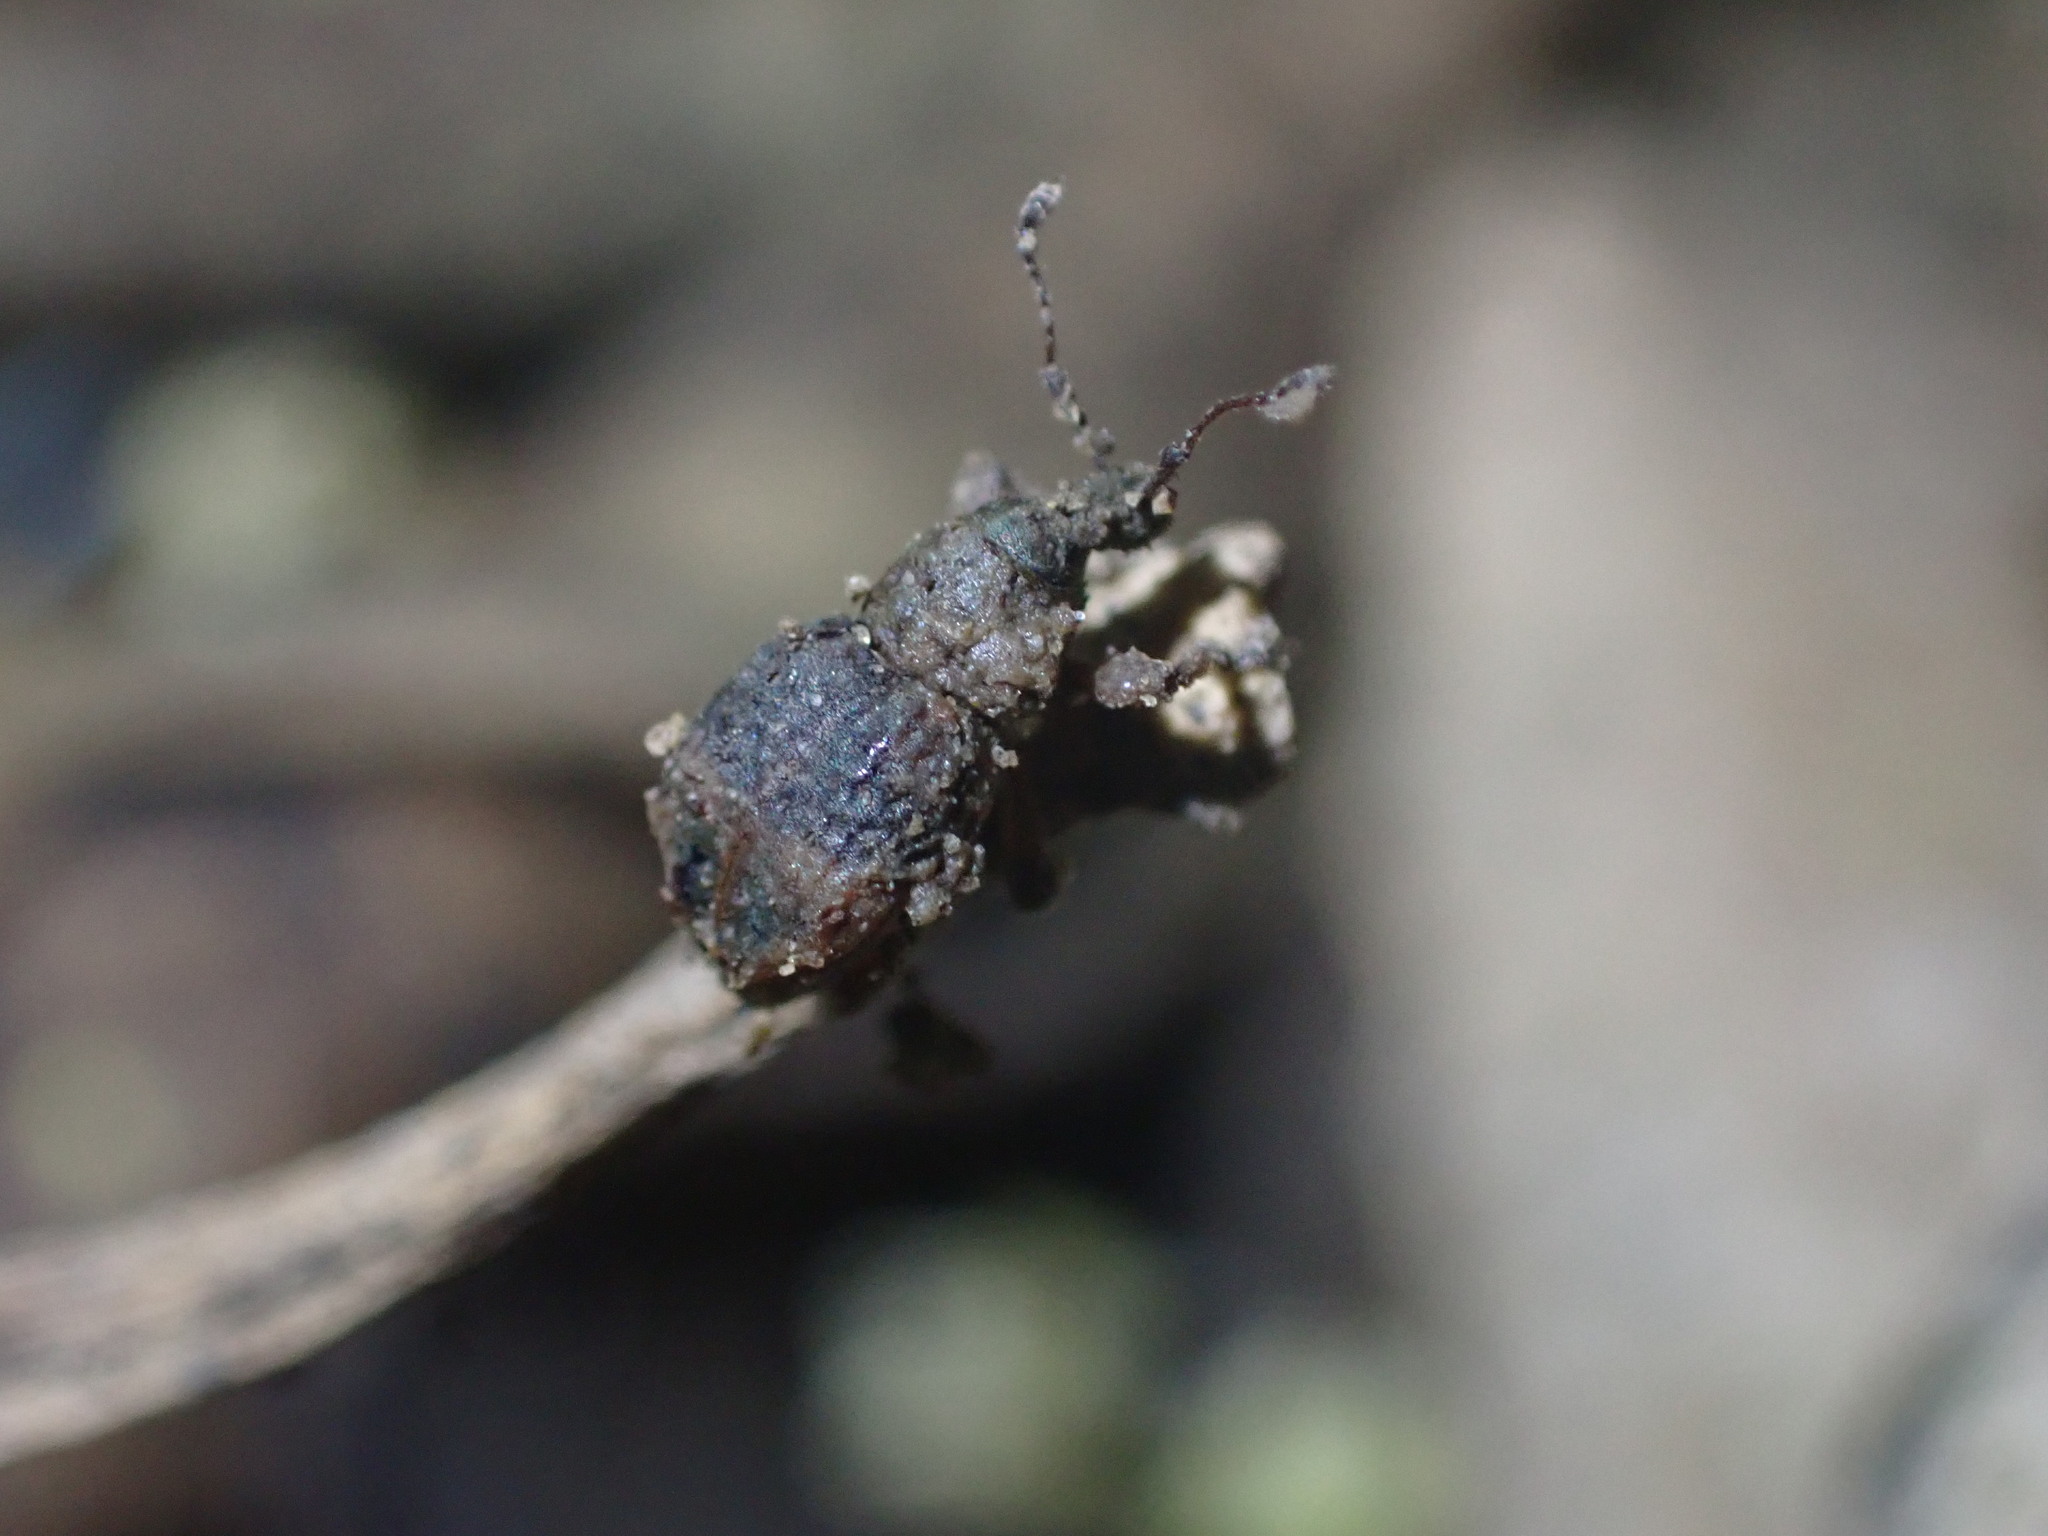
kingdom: Animalia
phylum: Arthropoda
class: Insecta
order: Coleoptera
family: Curculionidae
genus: Brachyolus
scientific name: Brachyolus punctatus
